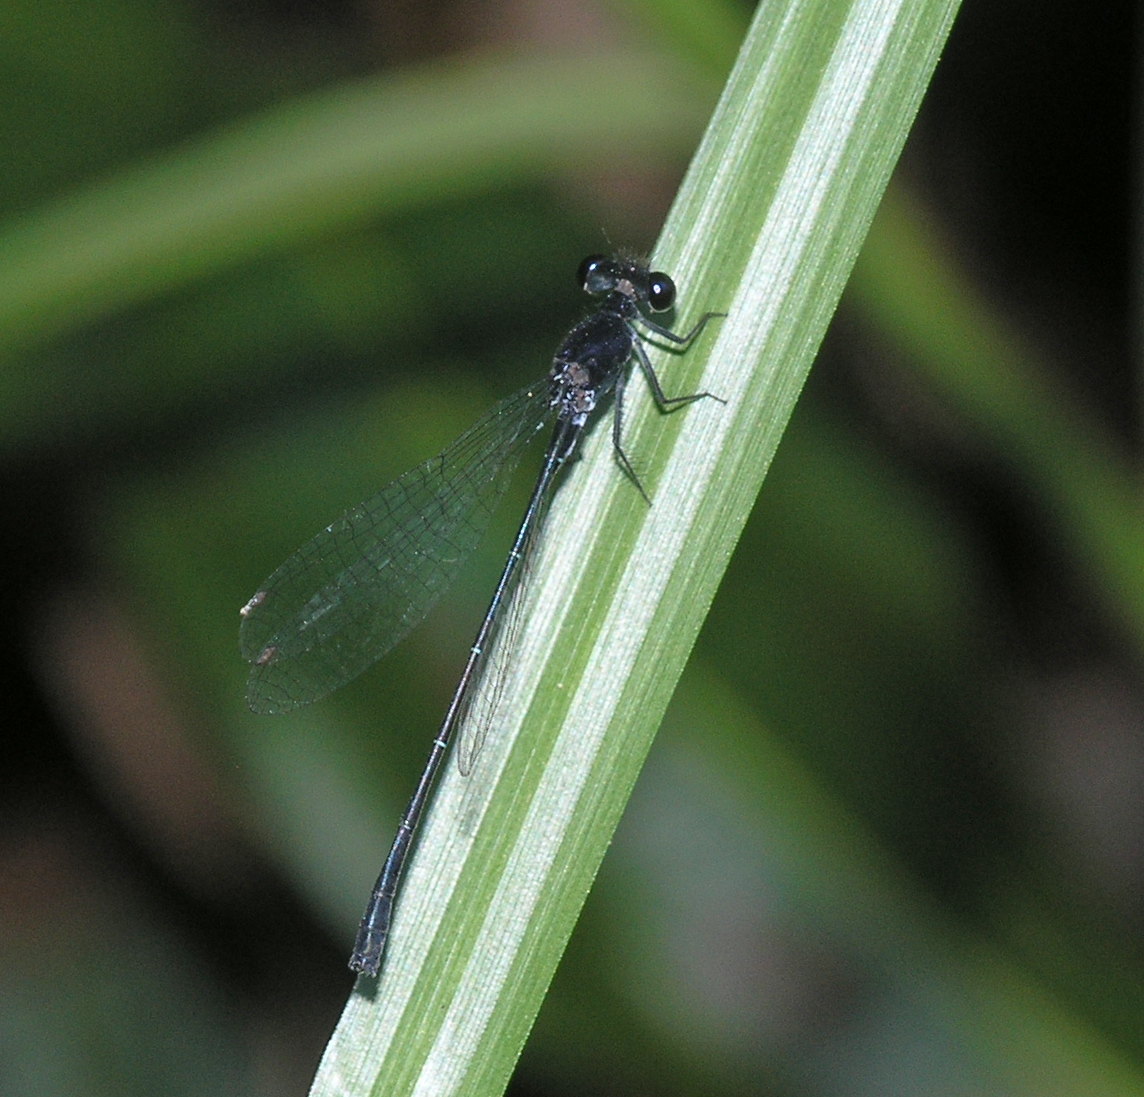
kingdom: Animalia
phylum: Arthropoda
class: Insecta
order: Odonata
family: Platycnemididae
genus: Onychargia
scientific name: Onychargia atrocyana
